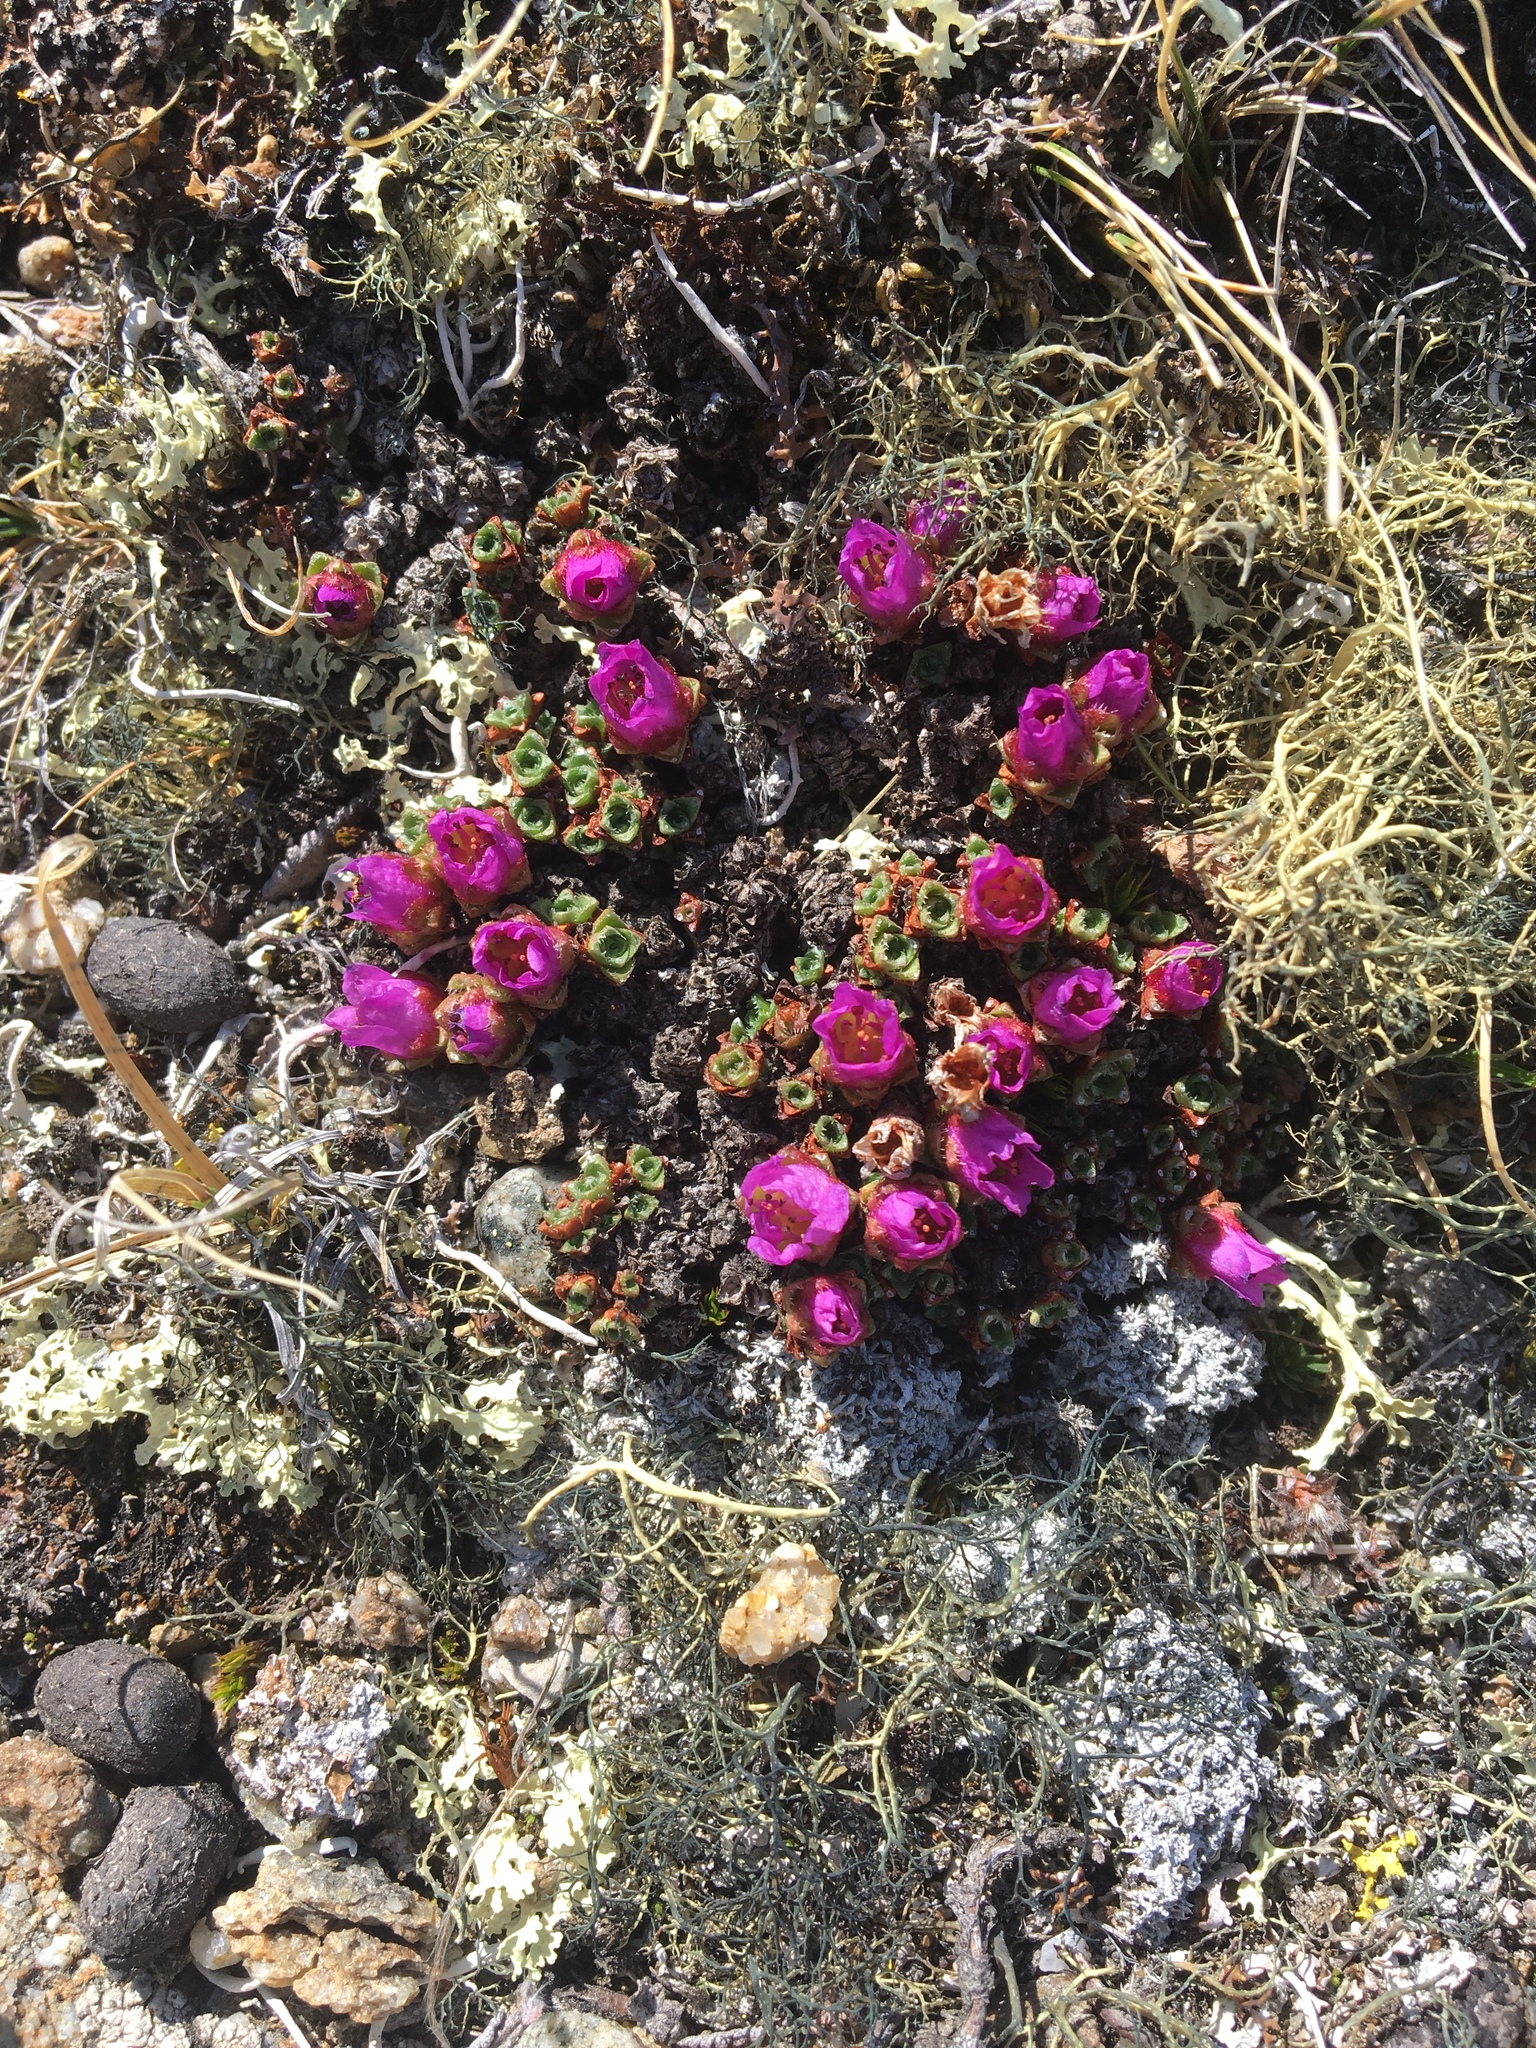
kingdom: Plantae
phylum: Tracheophyta
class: Magnoliopsida
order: Saxifragales
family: Saxifragaceae
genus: Saxifraga
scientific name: Saxifraga oppositifolia
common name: Purple saxifrage
